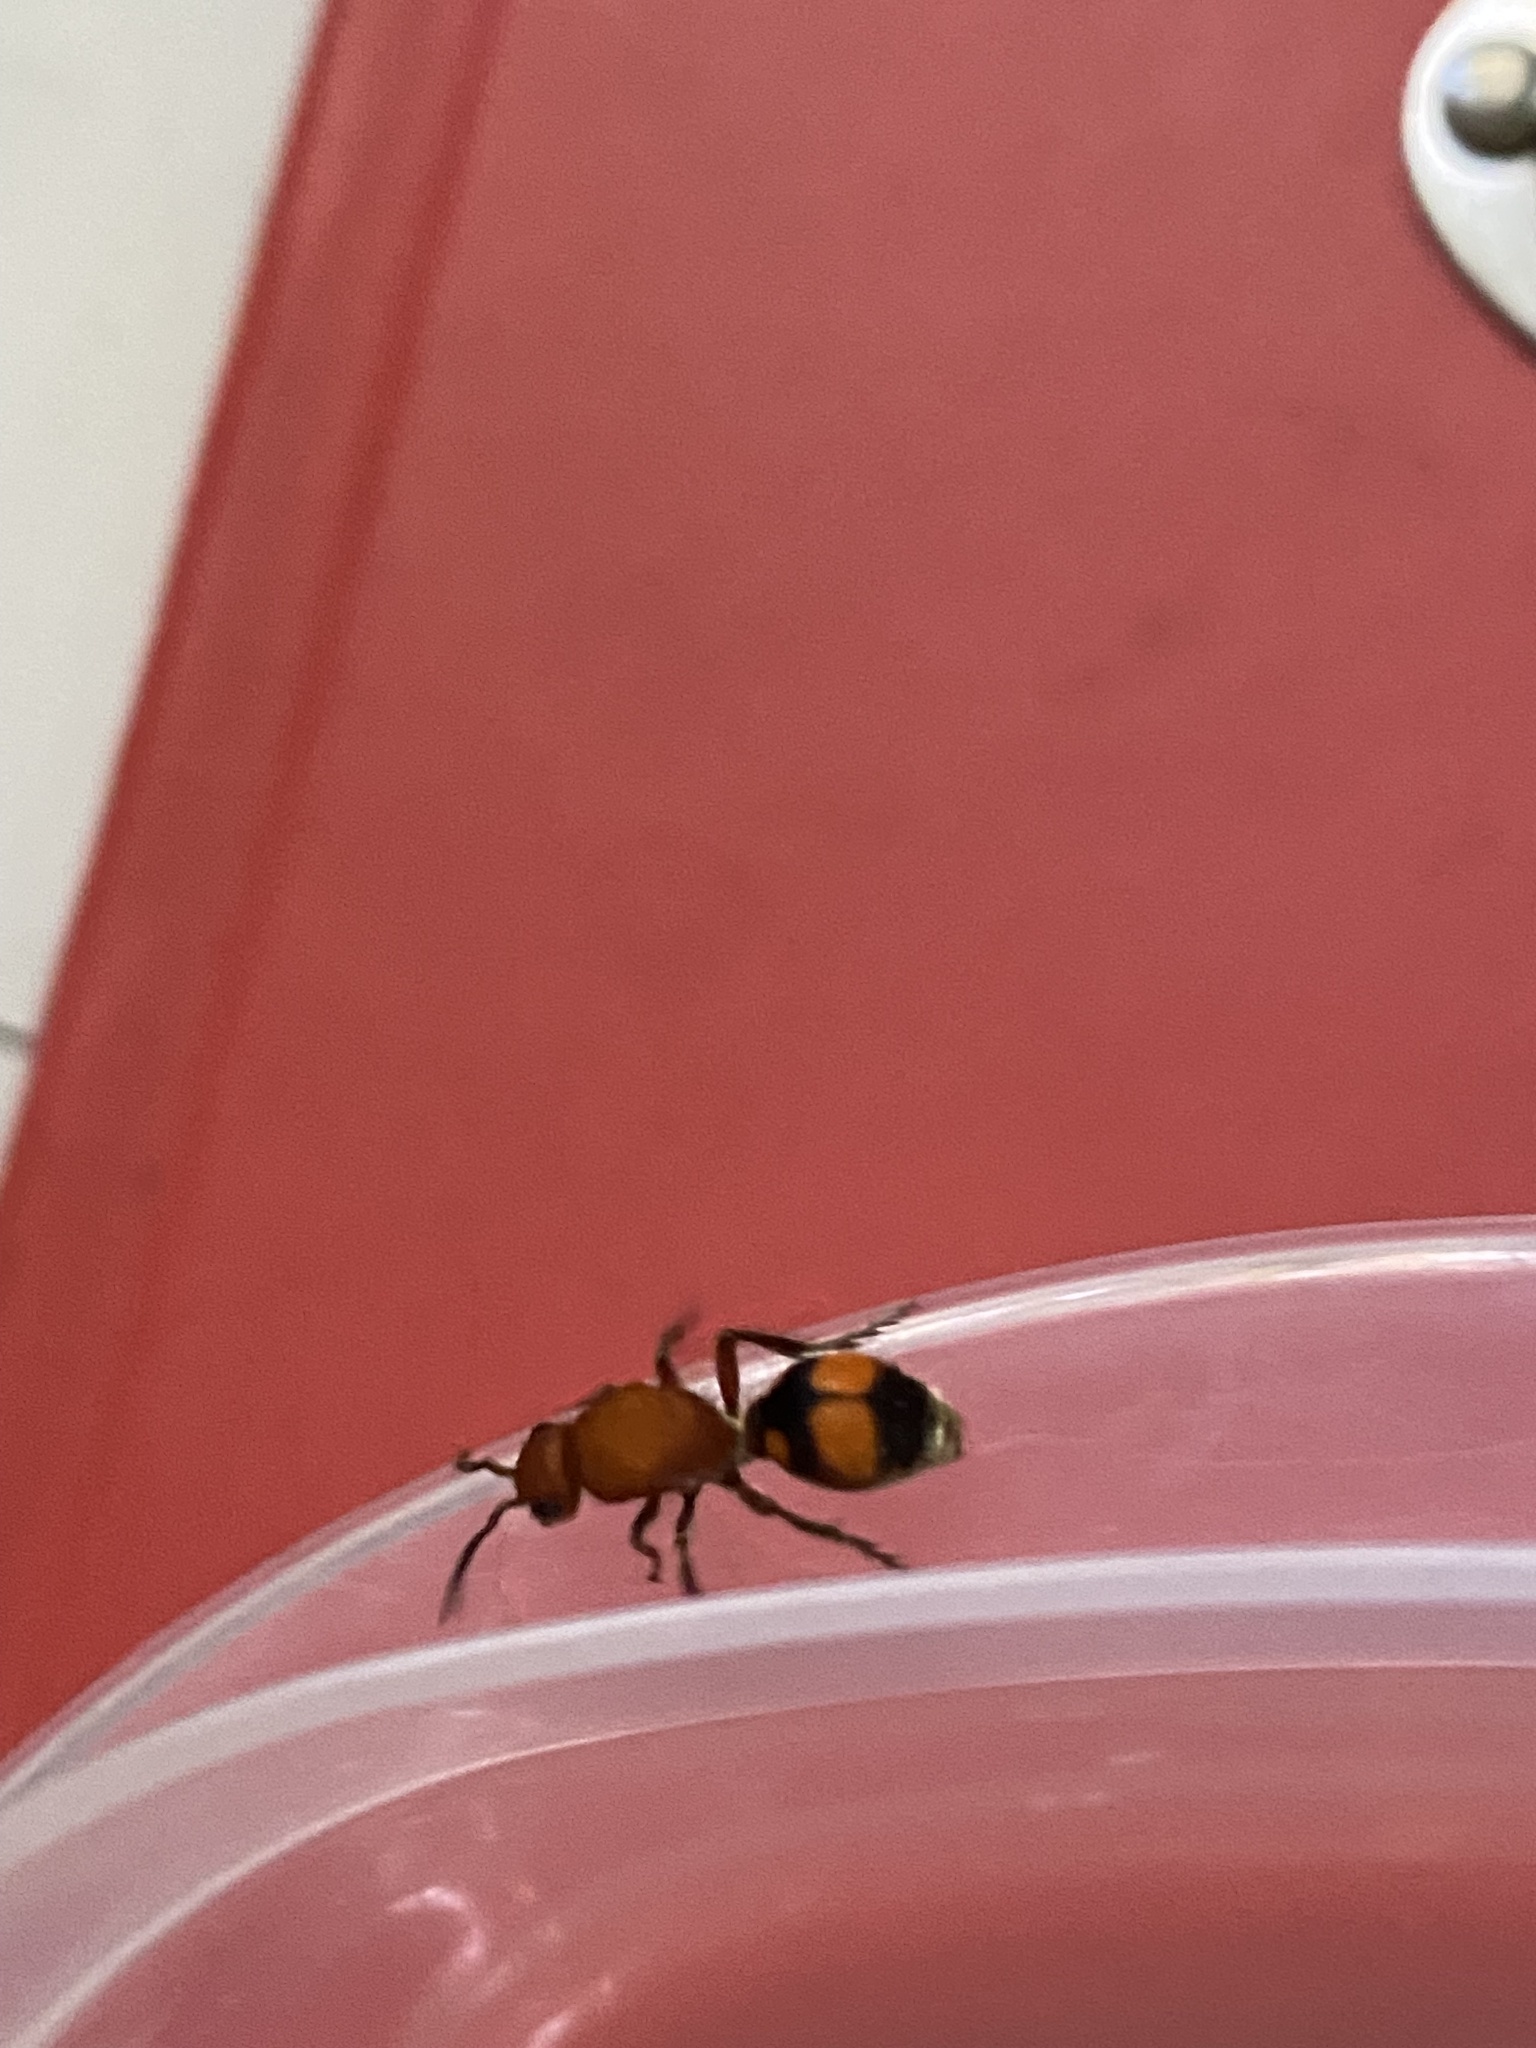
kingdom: Animalia
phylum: Arthropoda
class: Insecta
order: Hymenoptera
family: Mutillidae
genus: Dasymutilla
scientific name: Dasymutilla
